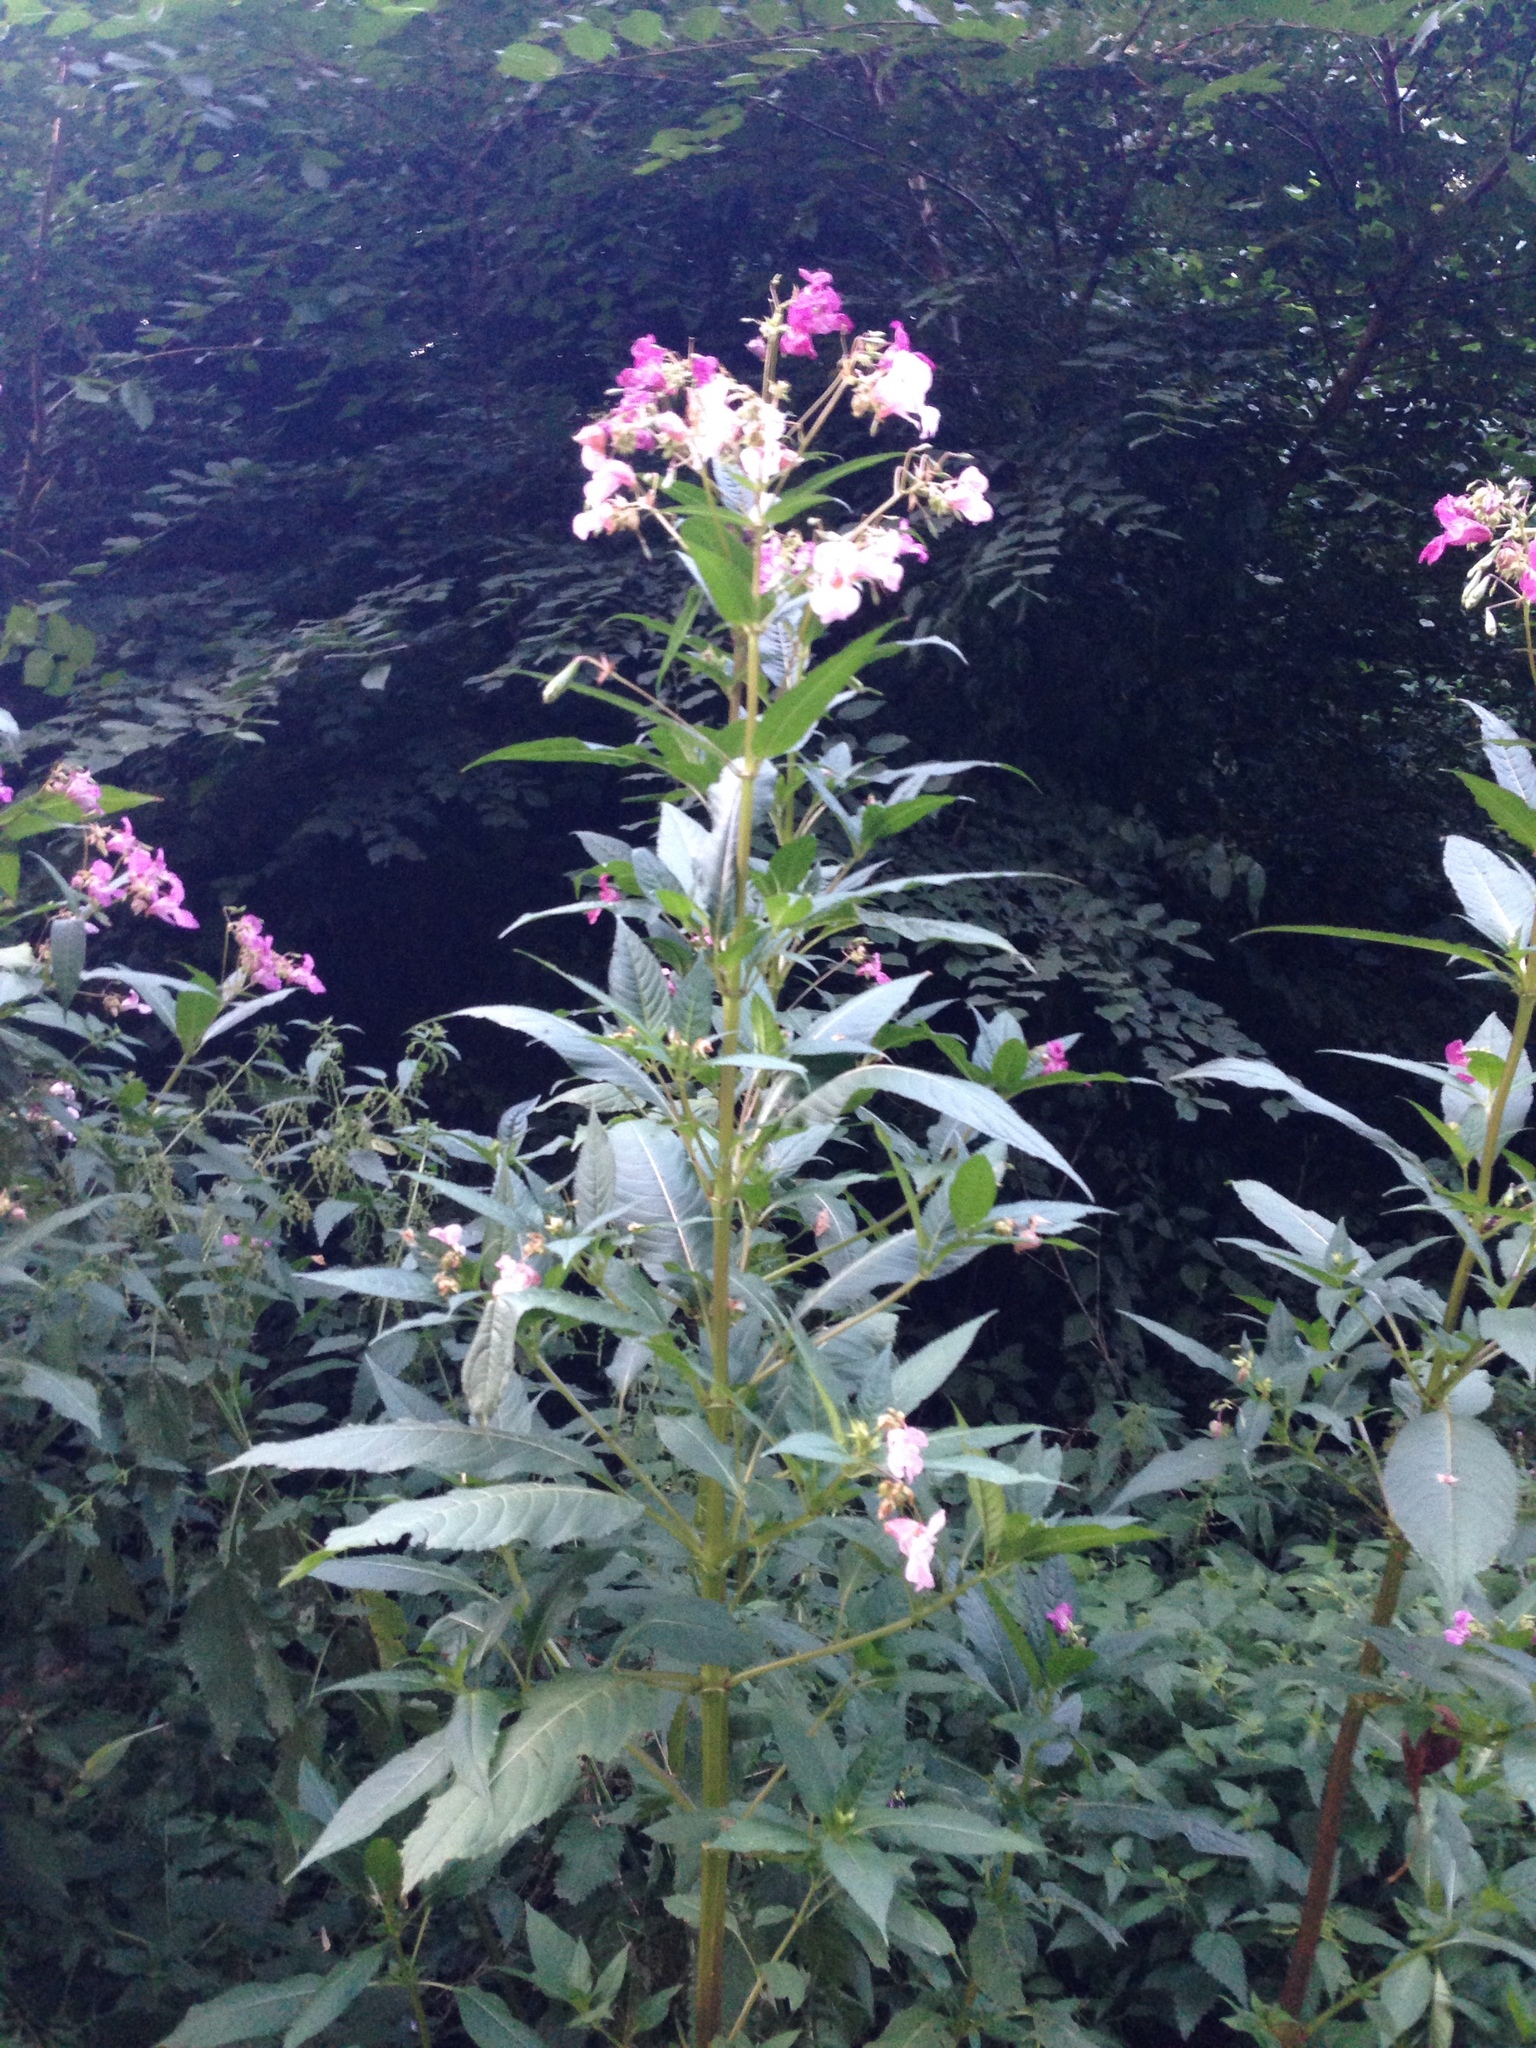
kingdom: Plantae
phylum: Tracheophyta
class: Magnoliopsida
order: Ericales
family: Balsaminaceae
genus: Impatiens
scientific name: Impatiens glandulifera
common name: Himalayan balsam
